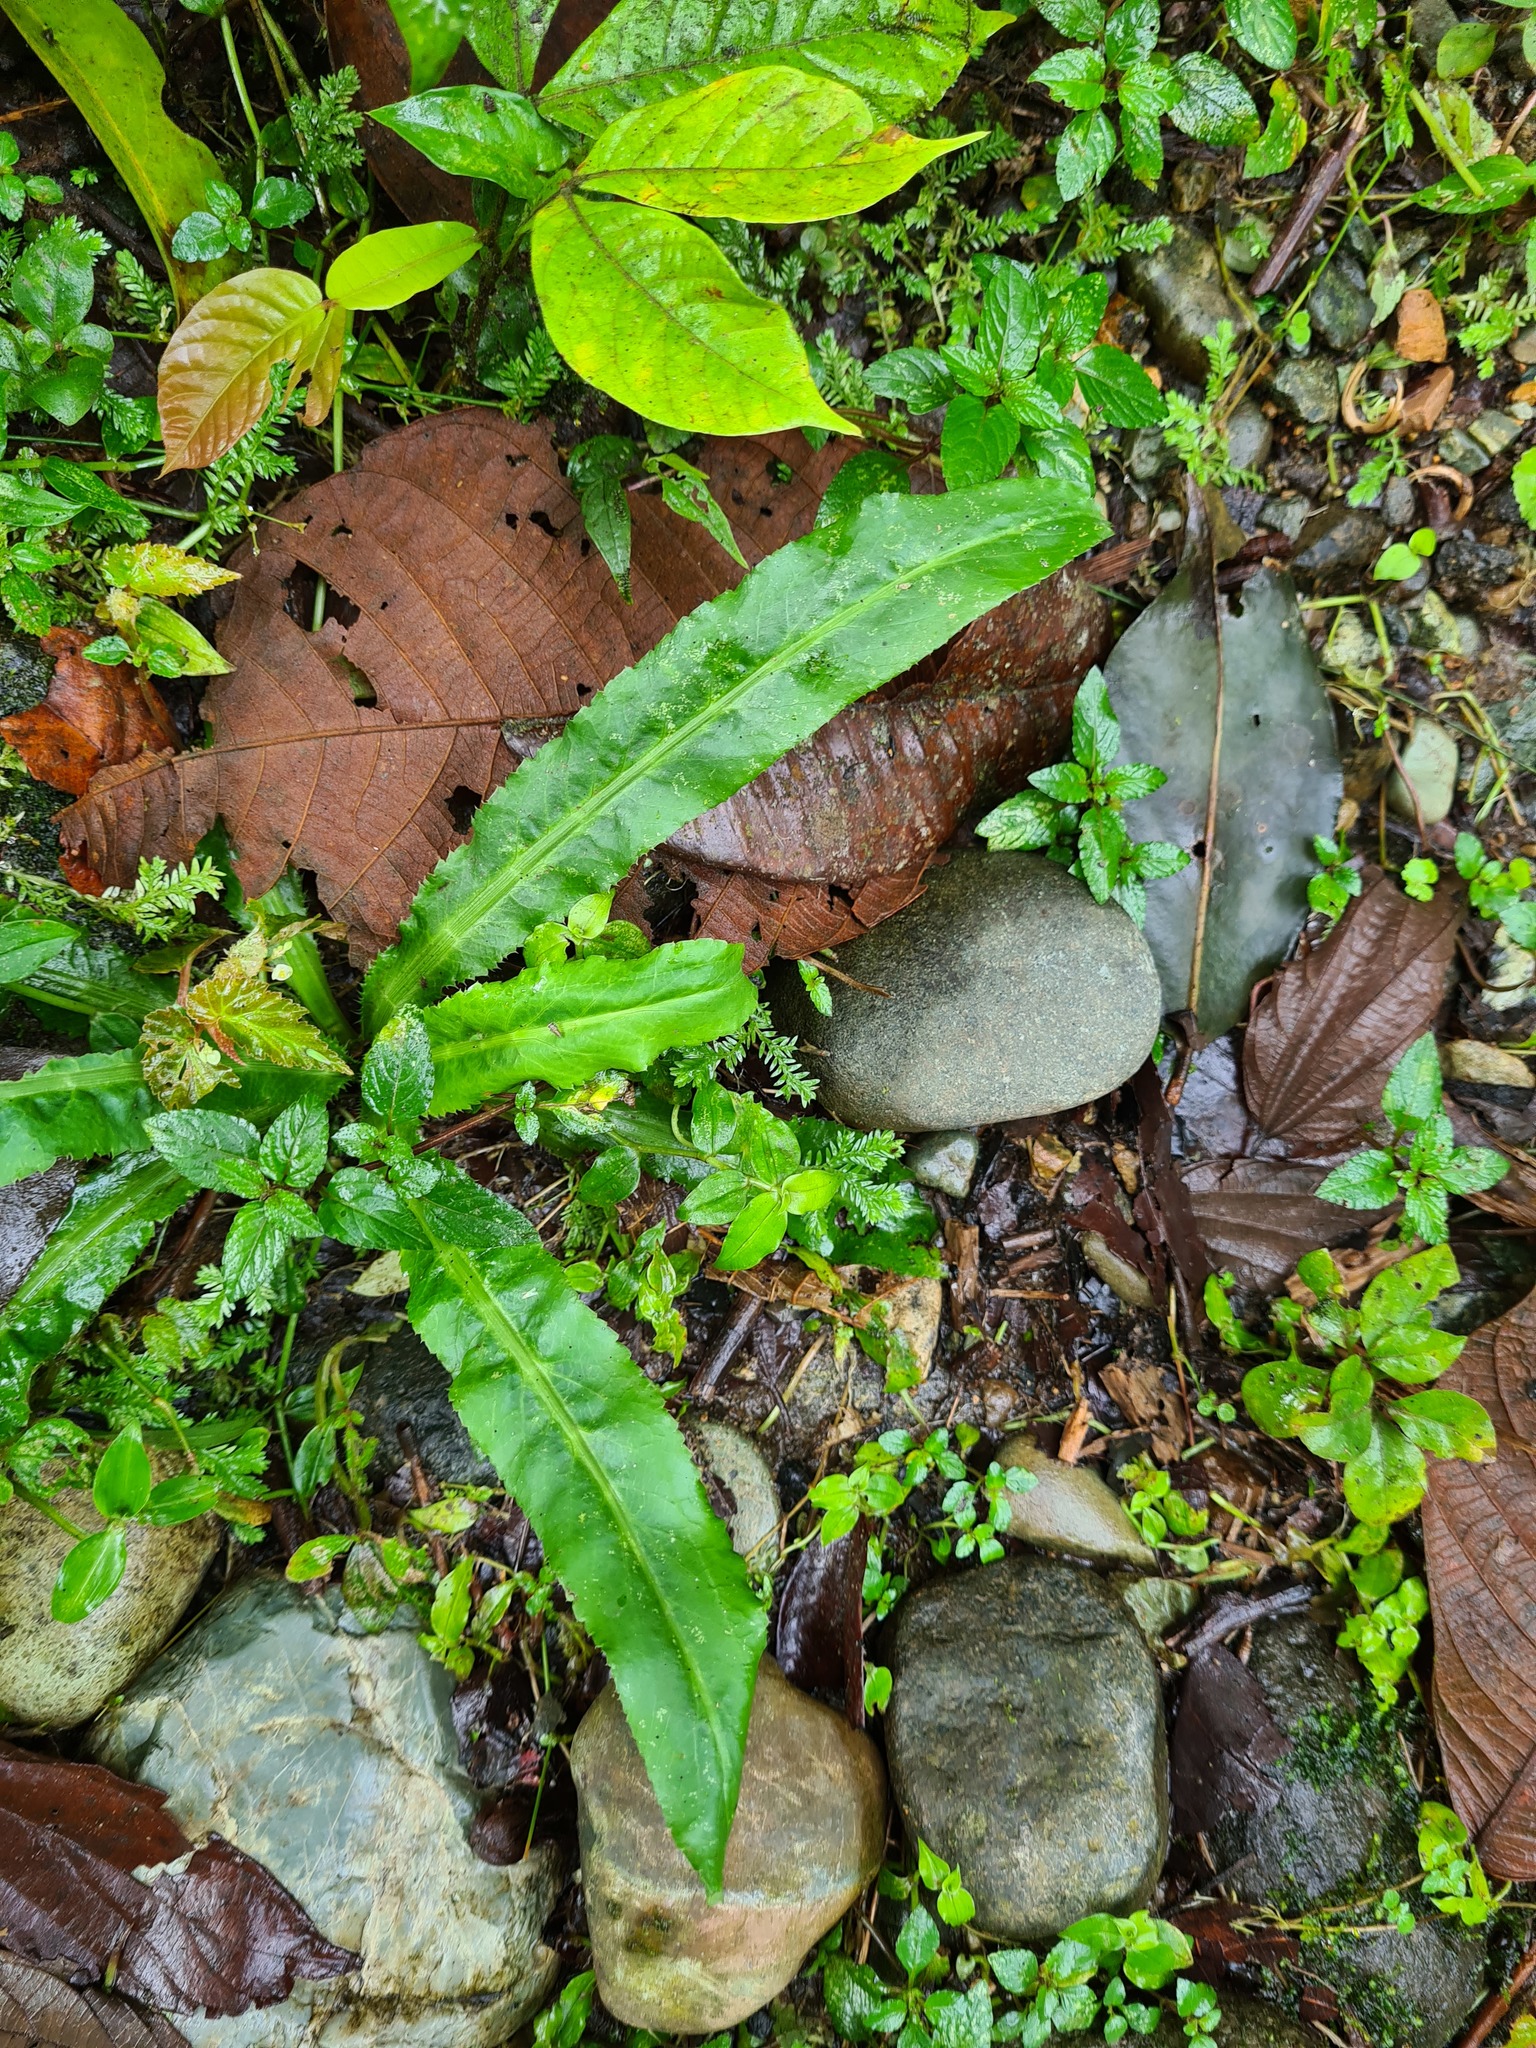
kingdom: Plantae
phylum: Tracheophyta
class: Magnoliopsida
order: Apiales
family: Apiaceae
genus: Eryngium
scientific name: Eryngium foetidum
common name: Fitweed
